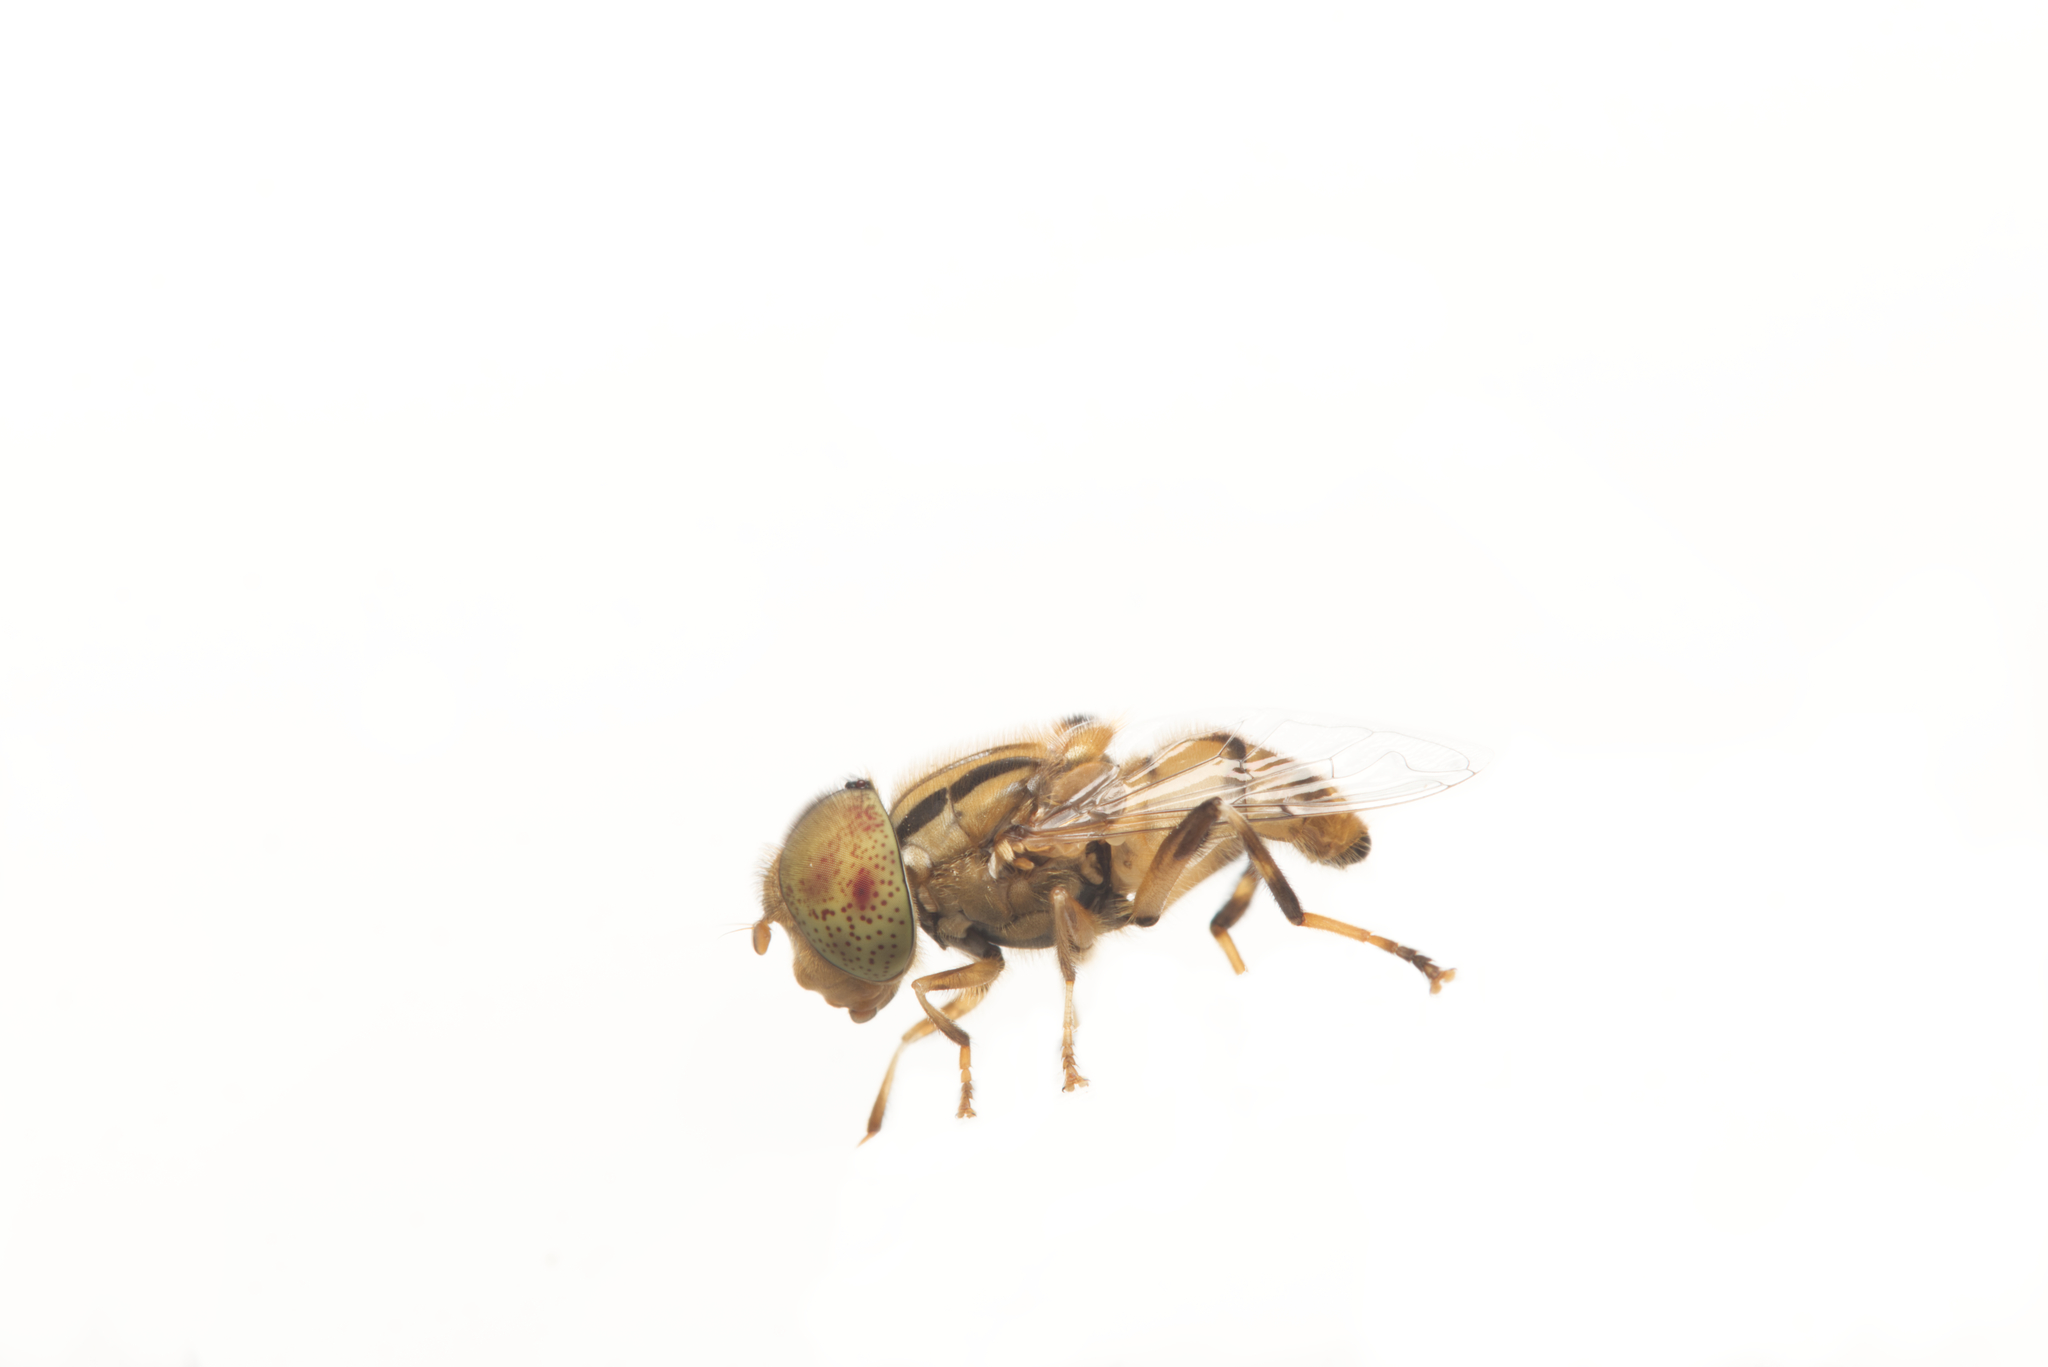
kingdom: Animalia
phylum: Arthropoda
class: Insecta
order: Diptera
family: Syrphidae
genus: Eristalinus
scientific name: Eristalinus punctulatus
